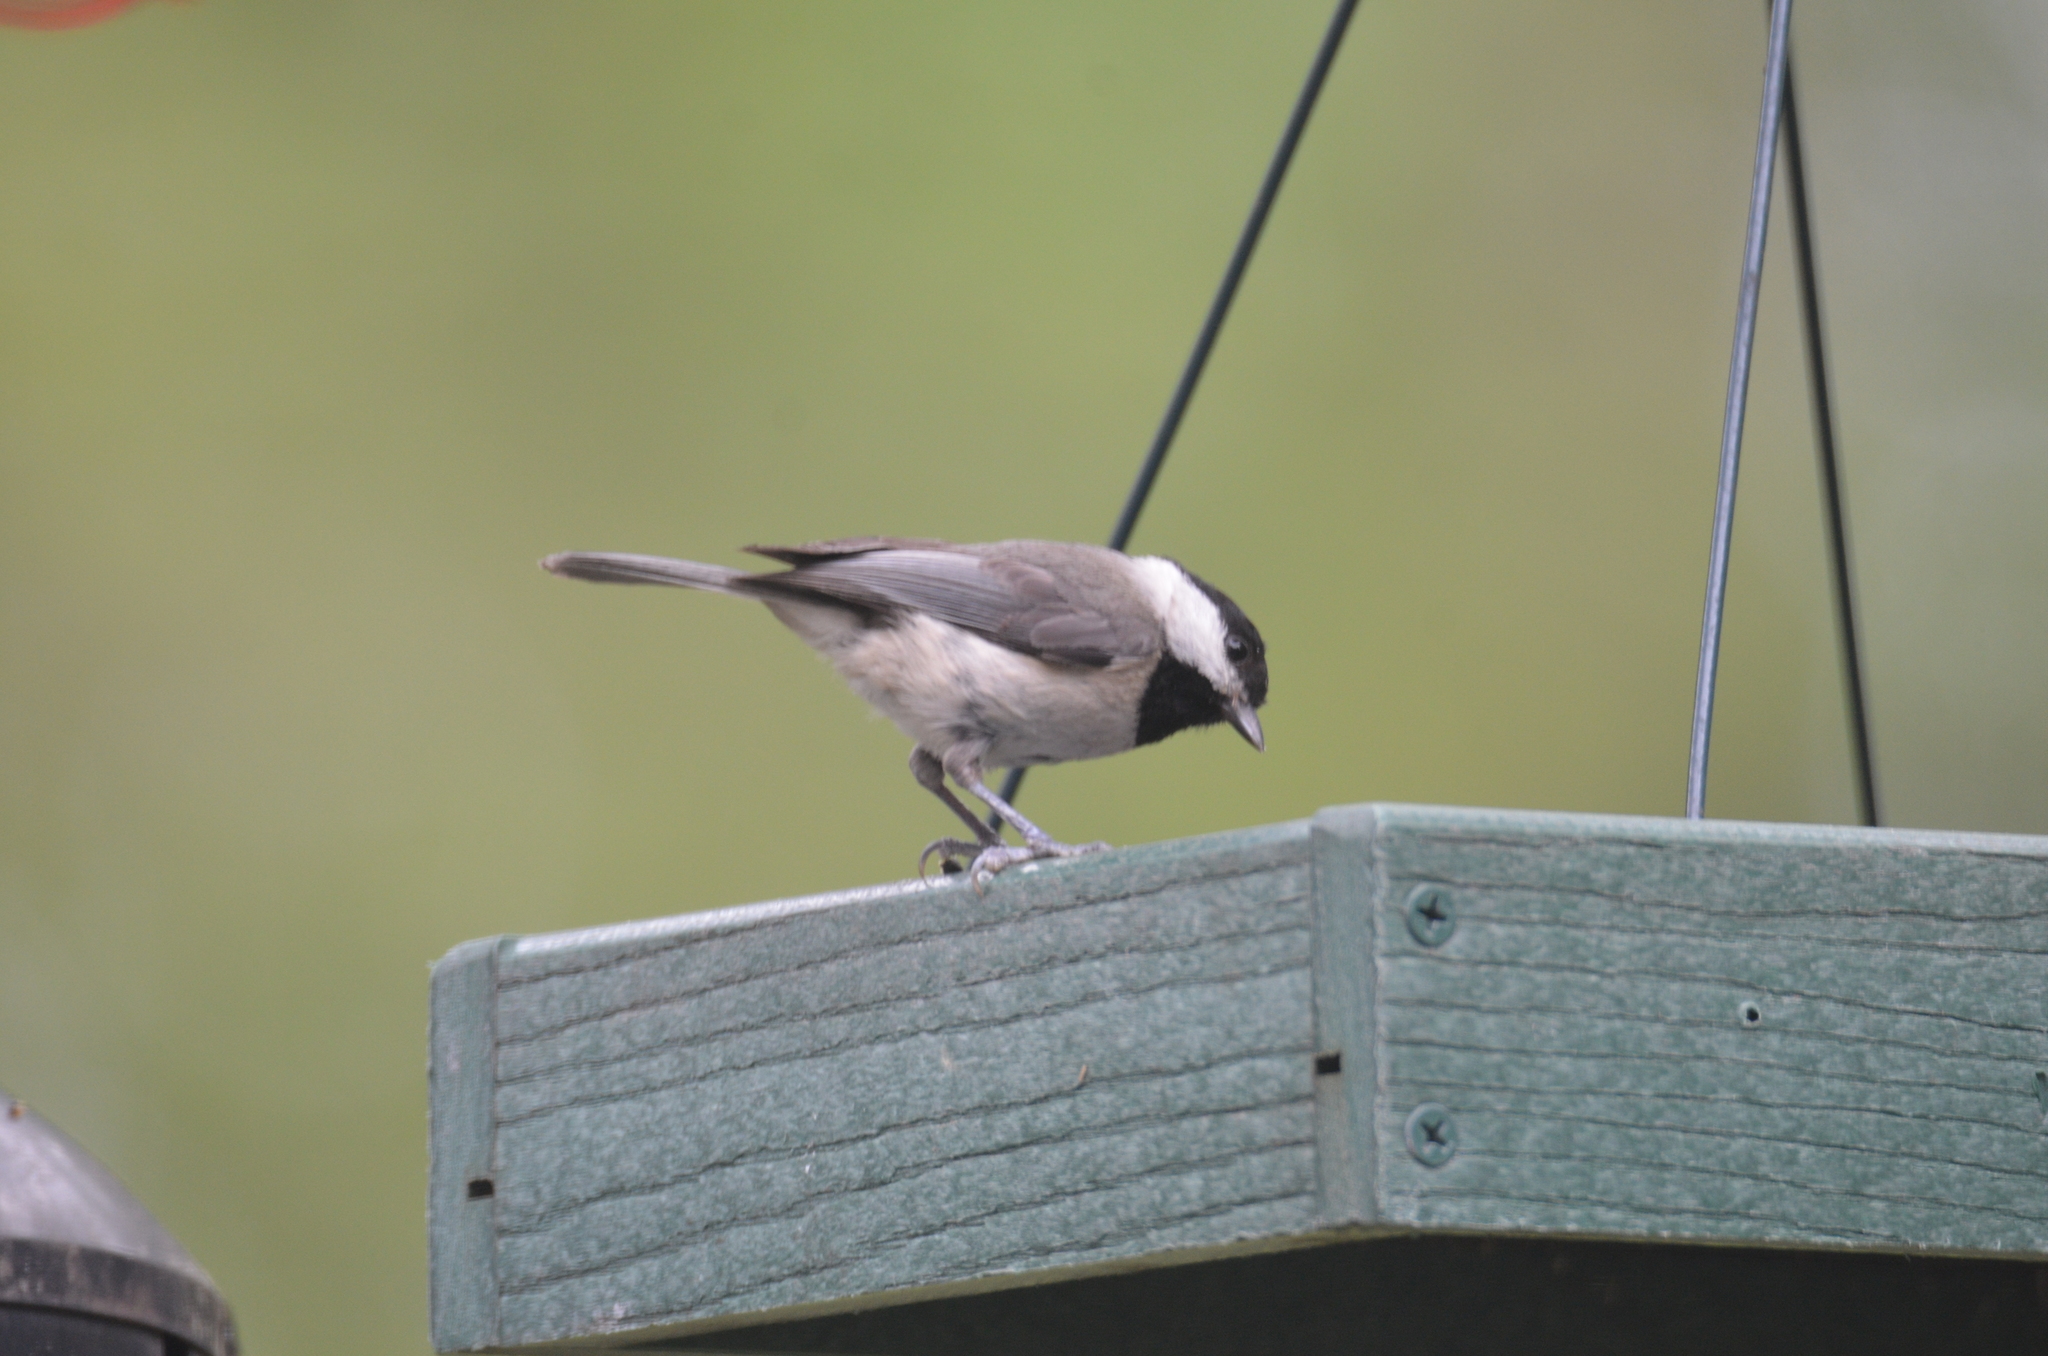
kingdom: Animalia
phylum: Chordata
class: Aves
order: Passeriformes
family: Paridae
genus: Poecile
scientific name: Poecile carolinensis
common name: Carolina chickadee
